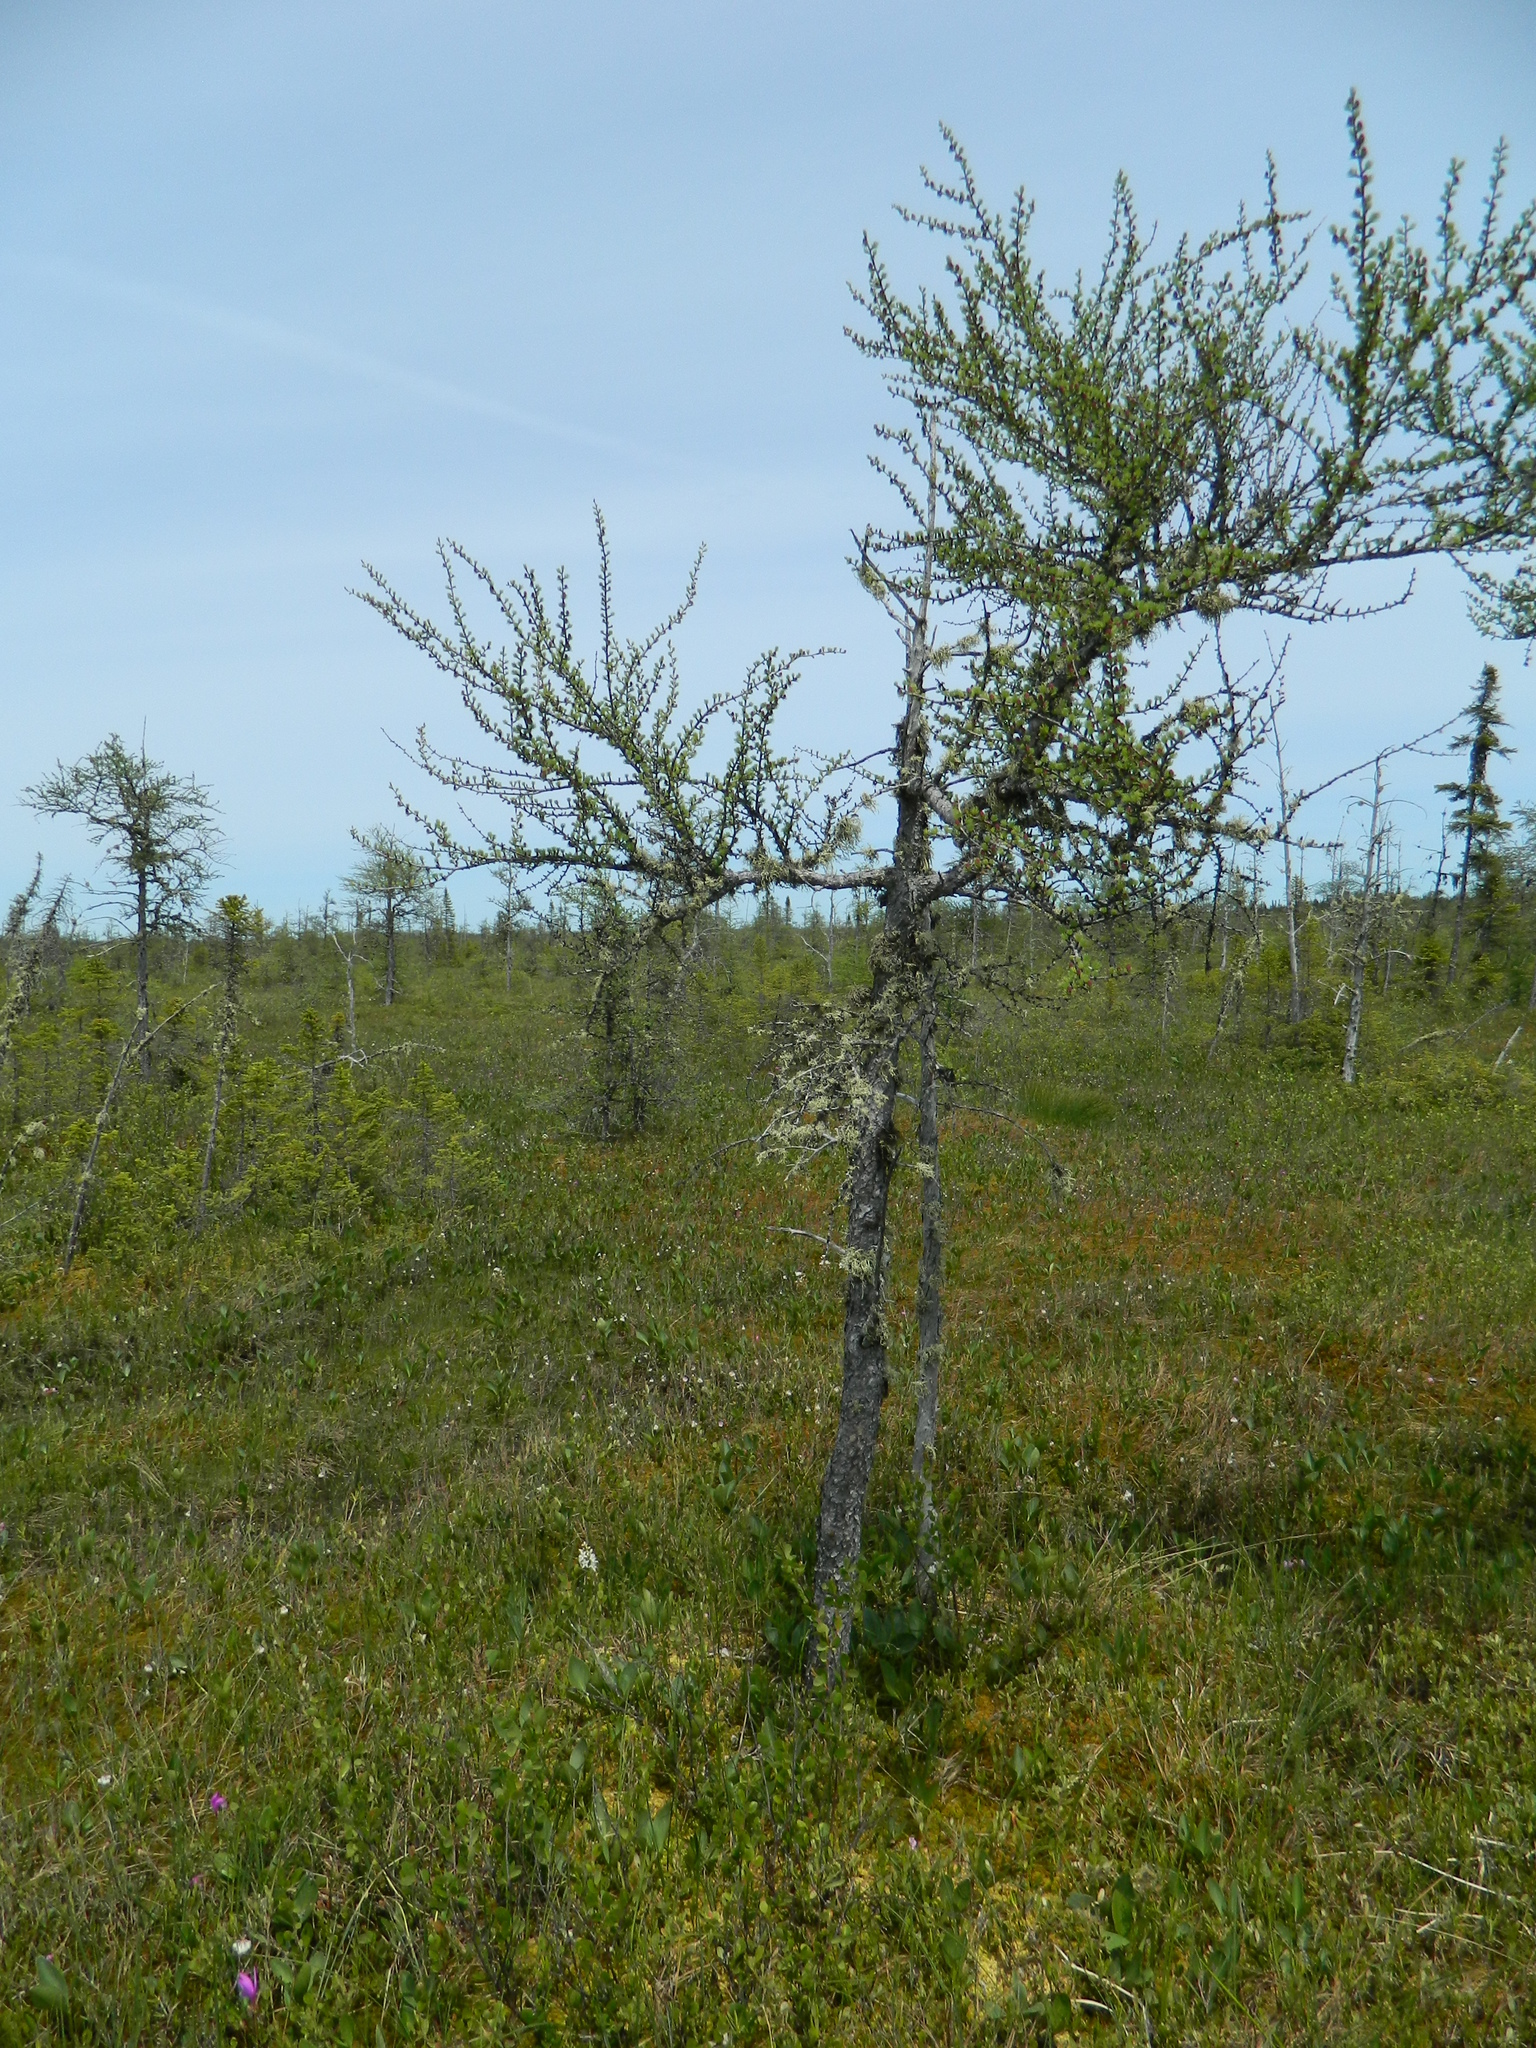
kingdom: Plantae
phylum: Tracheophyta
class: Pinopsida
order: Pinales
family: Pinaceae
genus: Larix
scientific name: Larix laricina
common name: American larch
